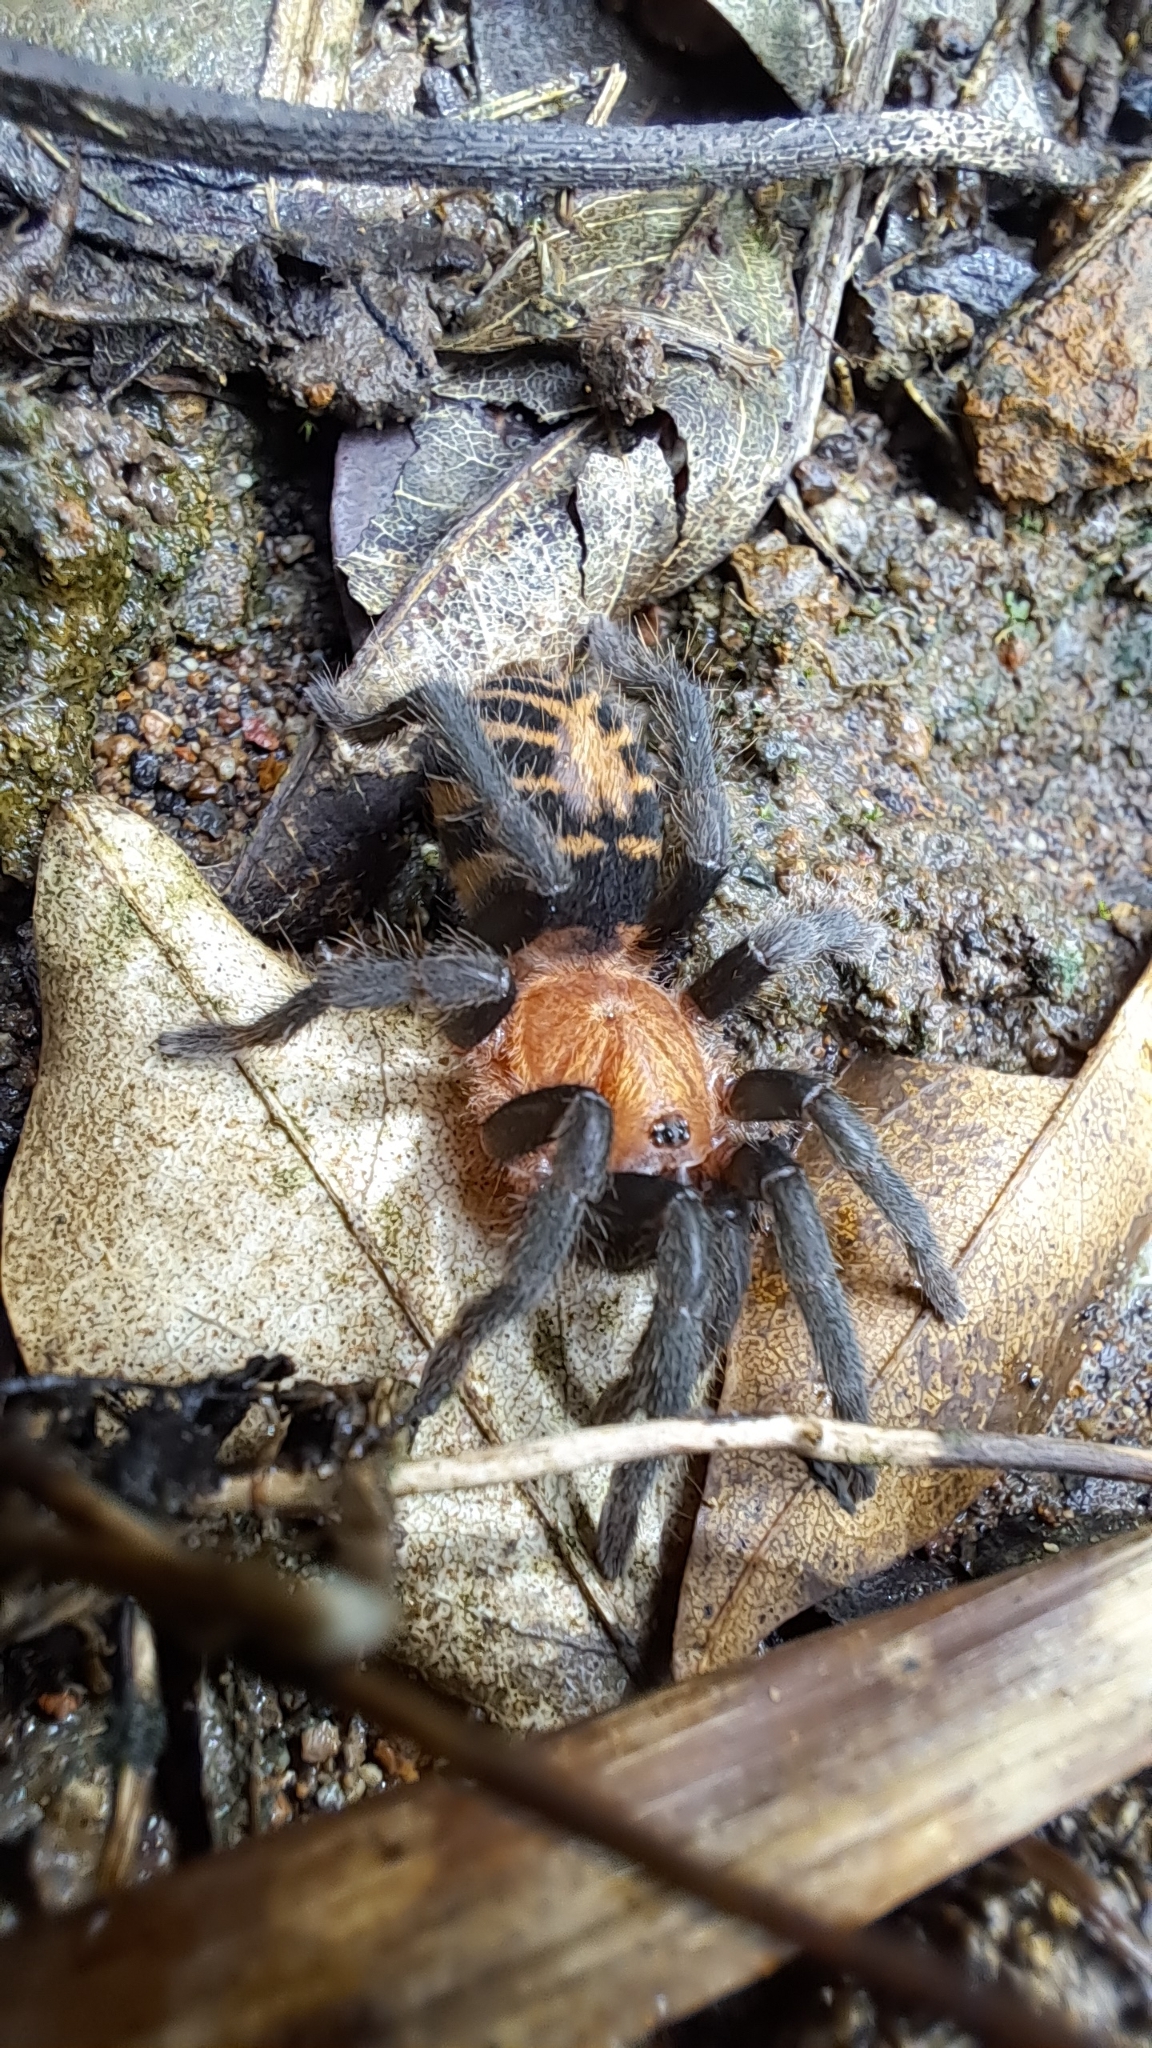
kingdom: Animalia
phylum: Arthropoda
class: Arachnida
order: Araneae
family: Theraphosidae
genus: Davus
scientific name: Davus ruficeps
